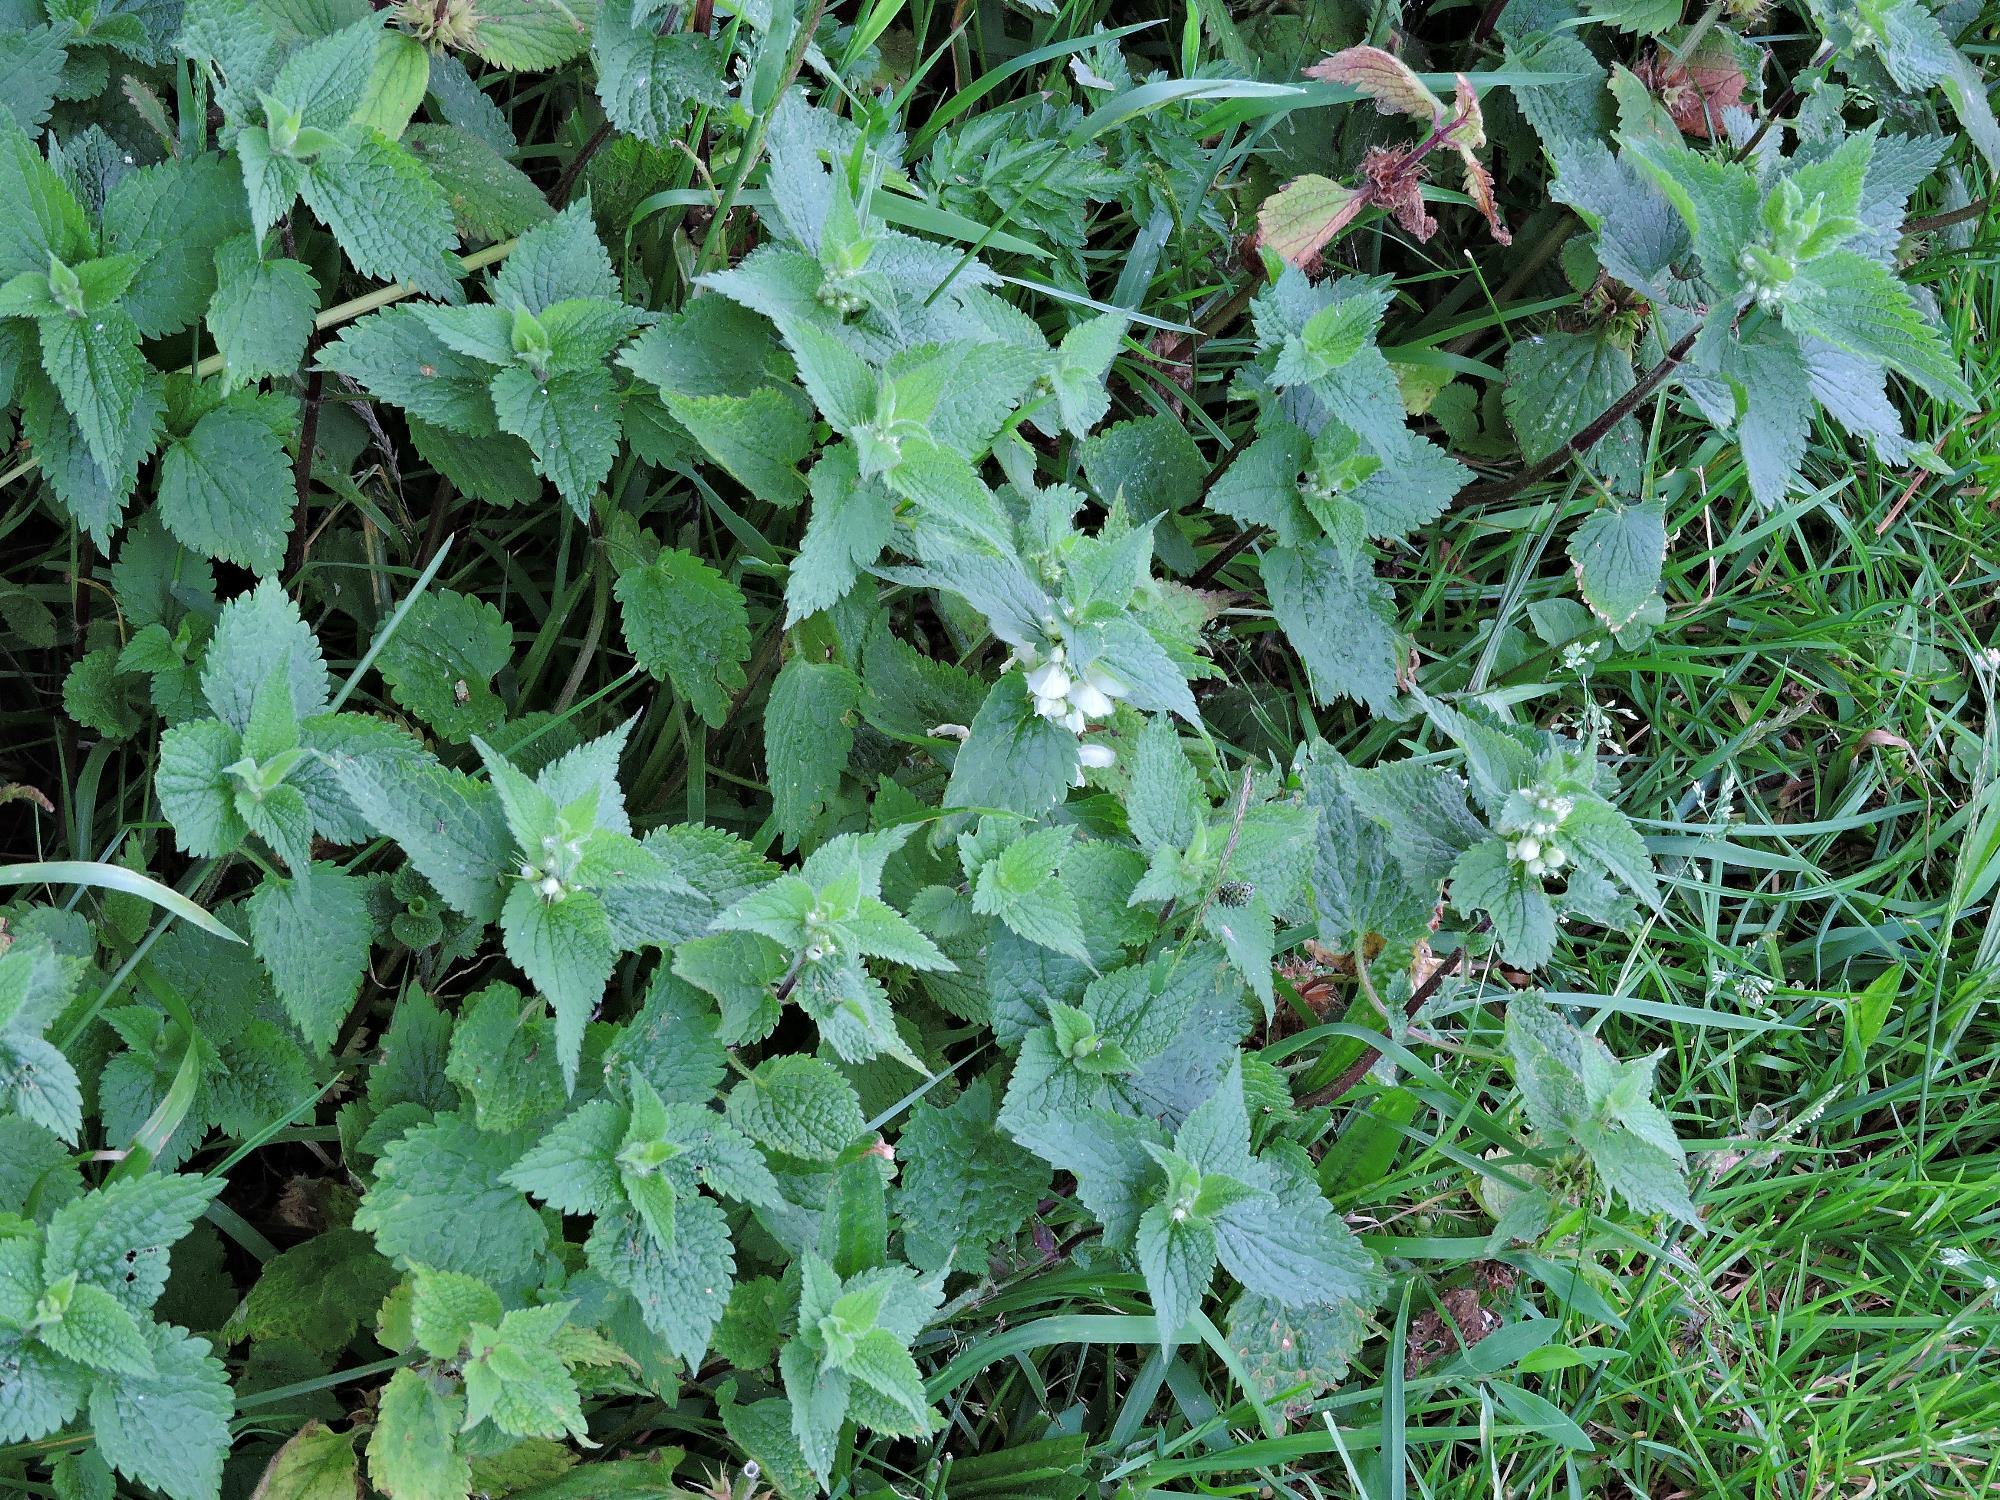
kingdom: Plantae
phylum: Tracheophyta
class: Magnoliopsida
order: Lamiales
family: Lamiaceae
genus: Lamium
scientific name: Lamium album
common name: White dead-nettle
